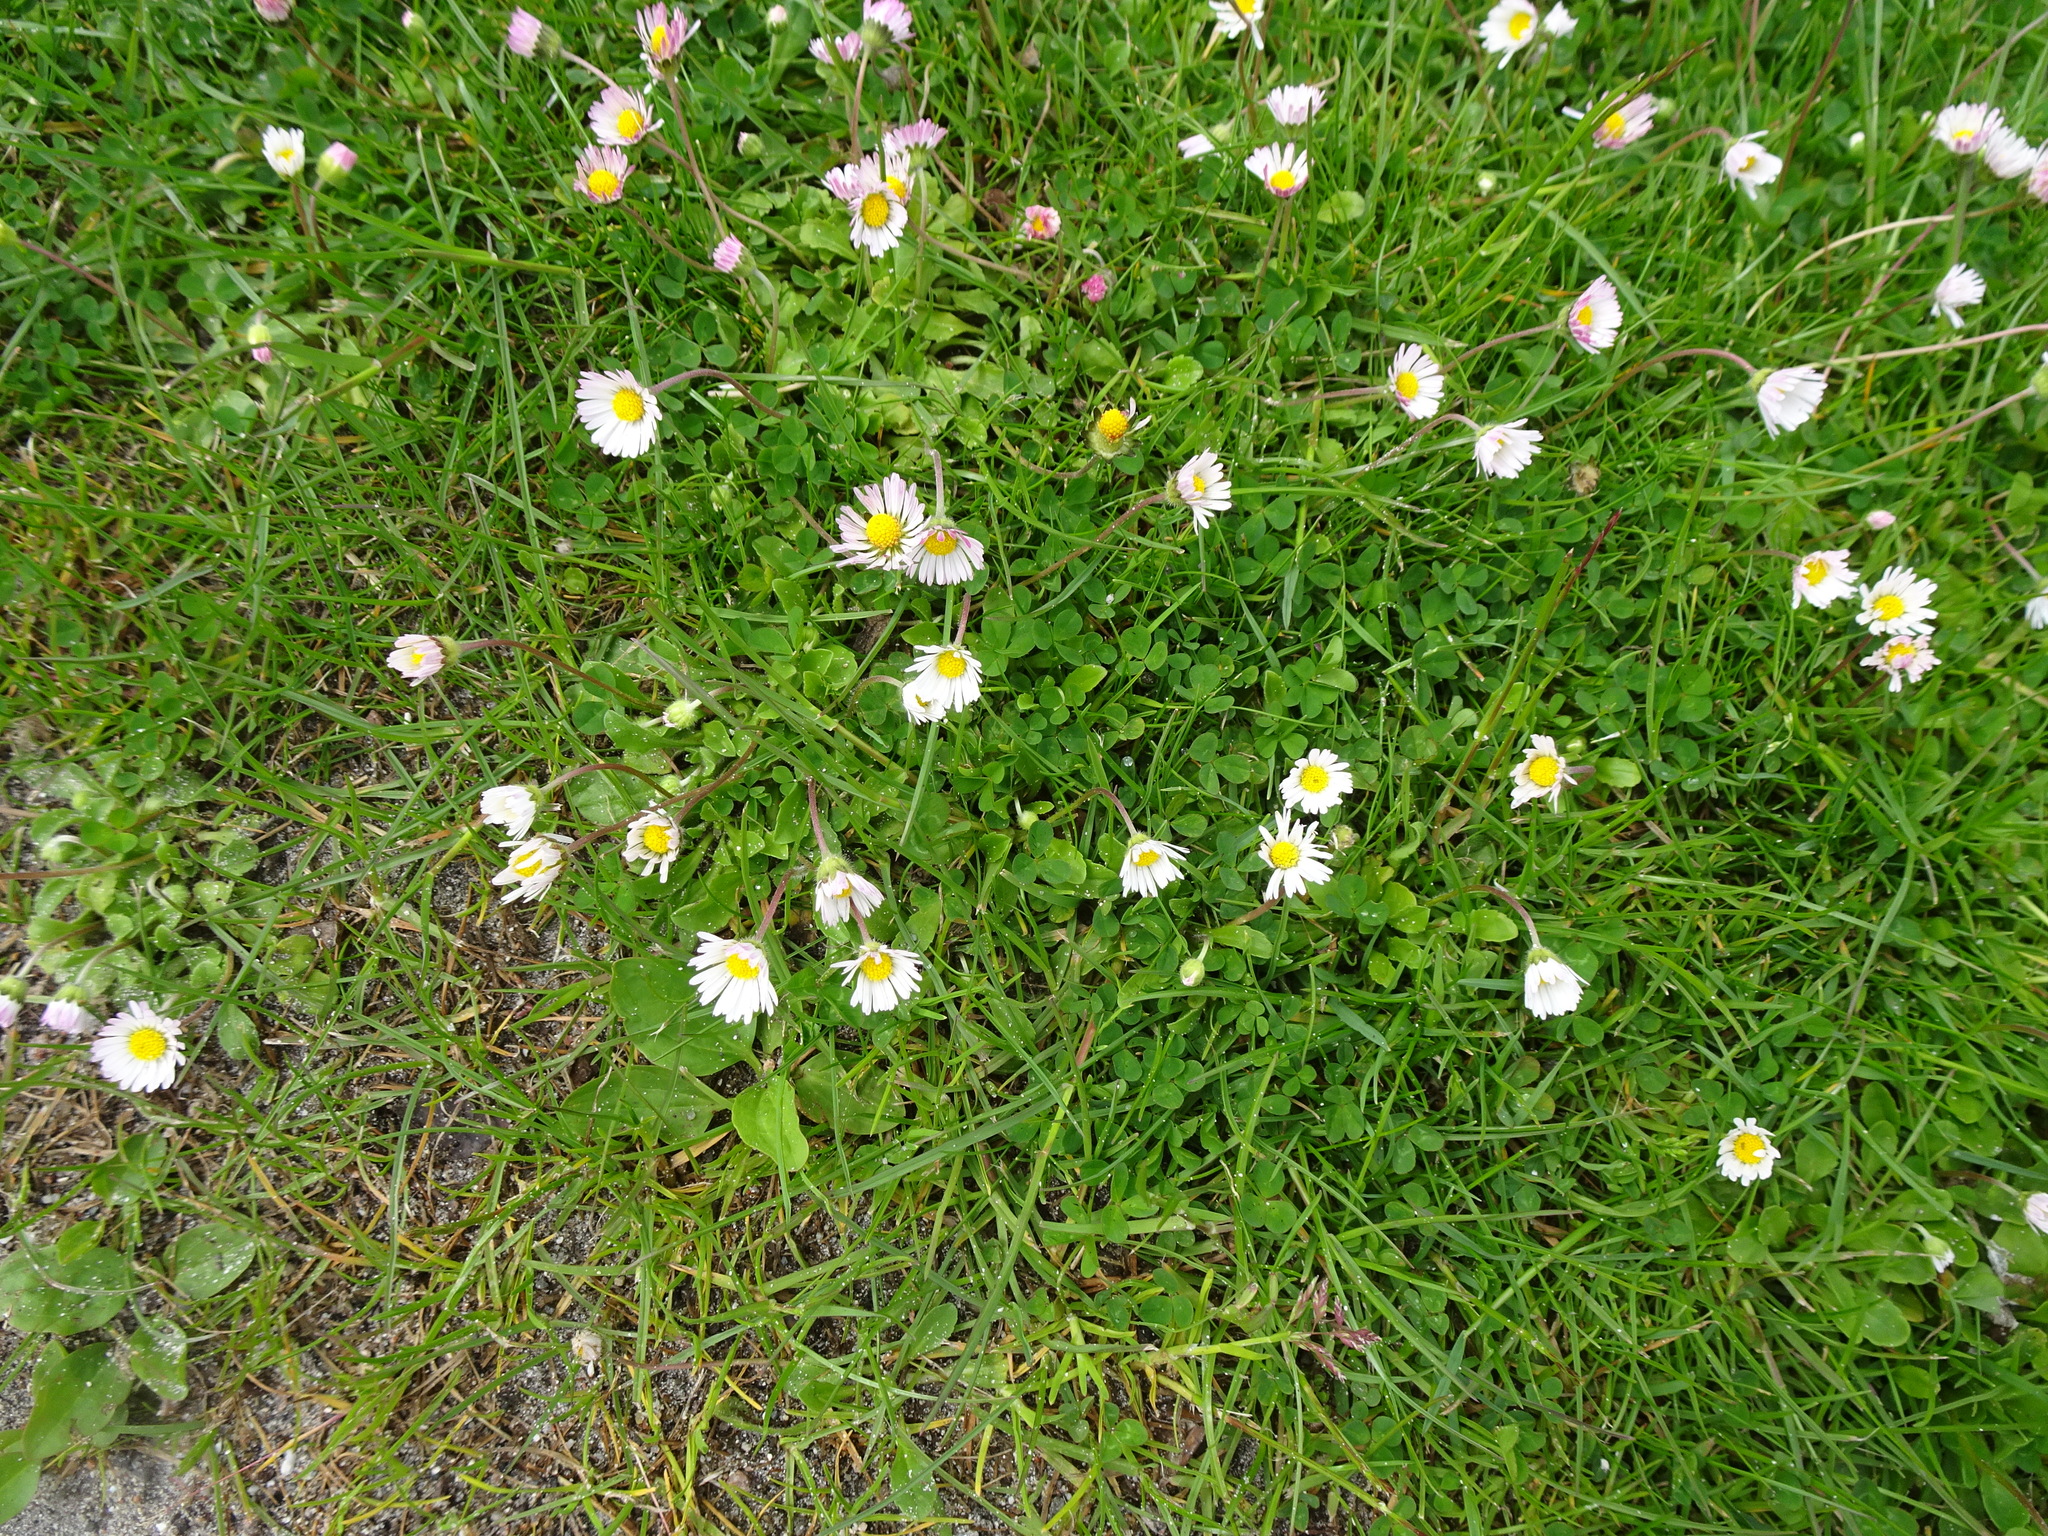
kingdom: Plantae
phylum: Tracheophyta
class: Magnoliopsida
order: Asterales
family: Asteraceae
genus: Bellis
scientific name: Bellis perennis
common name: Lawndaisy
